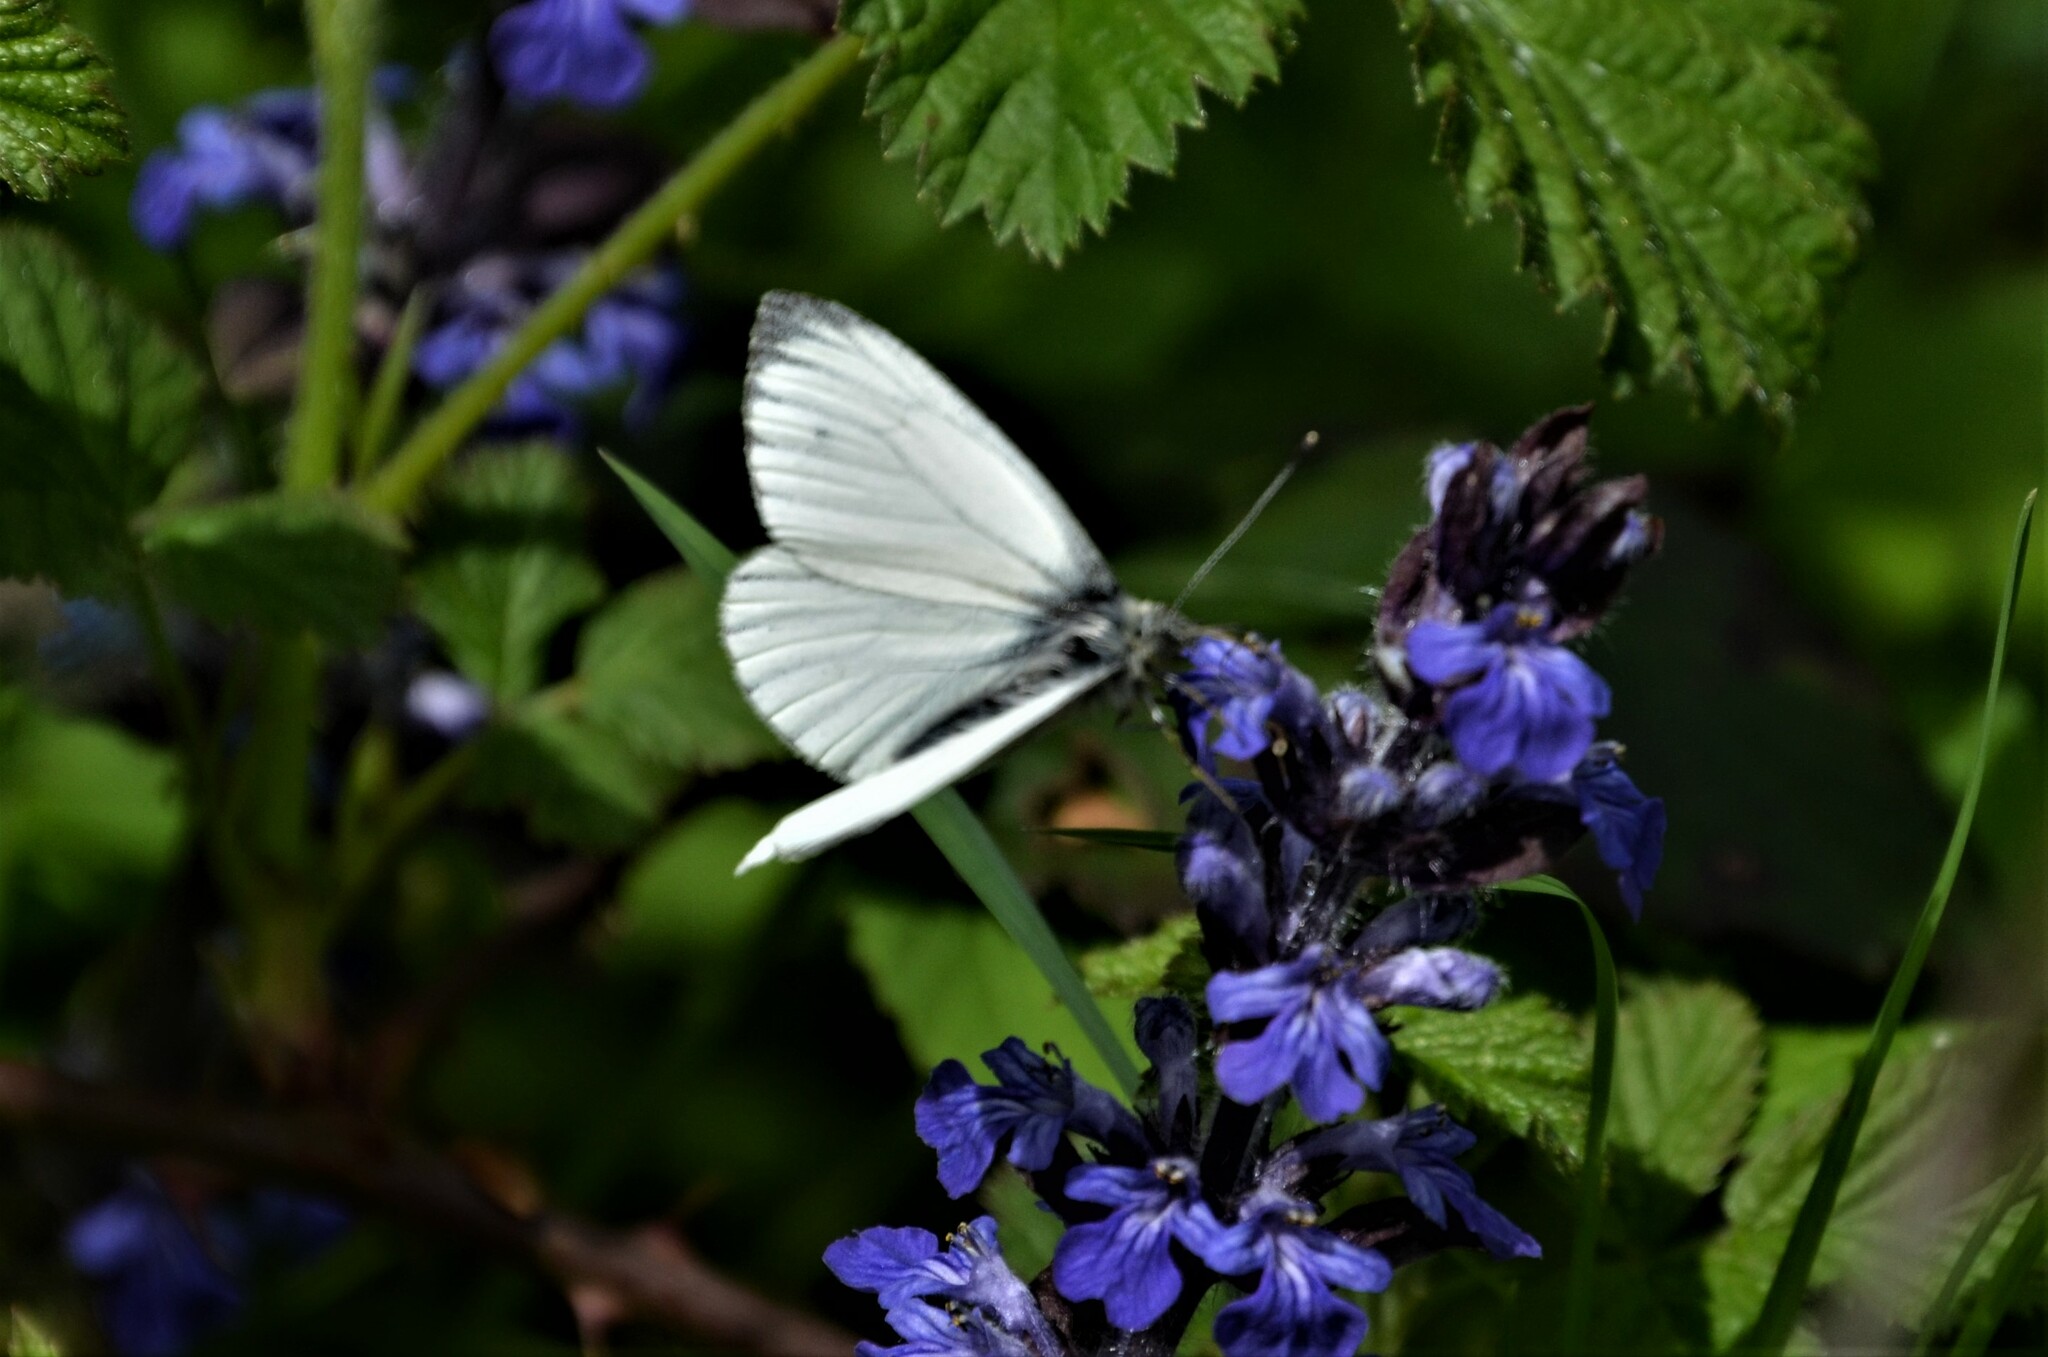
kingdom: Animalia
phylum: Arthropoda
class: Insecta
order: Lepidoptera
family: Pieridae
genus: Pieris
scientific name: Pieris napi
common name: Green-veined white
